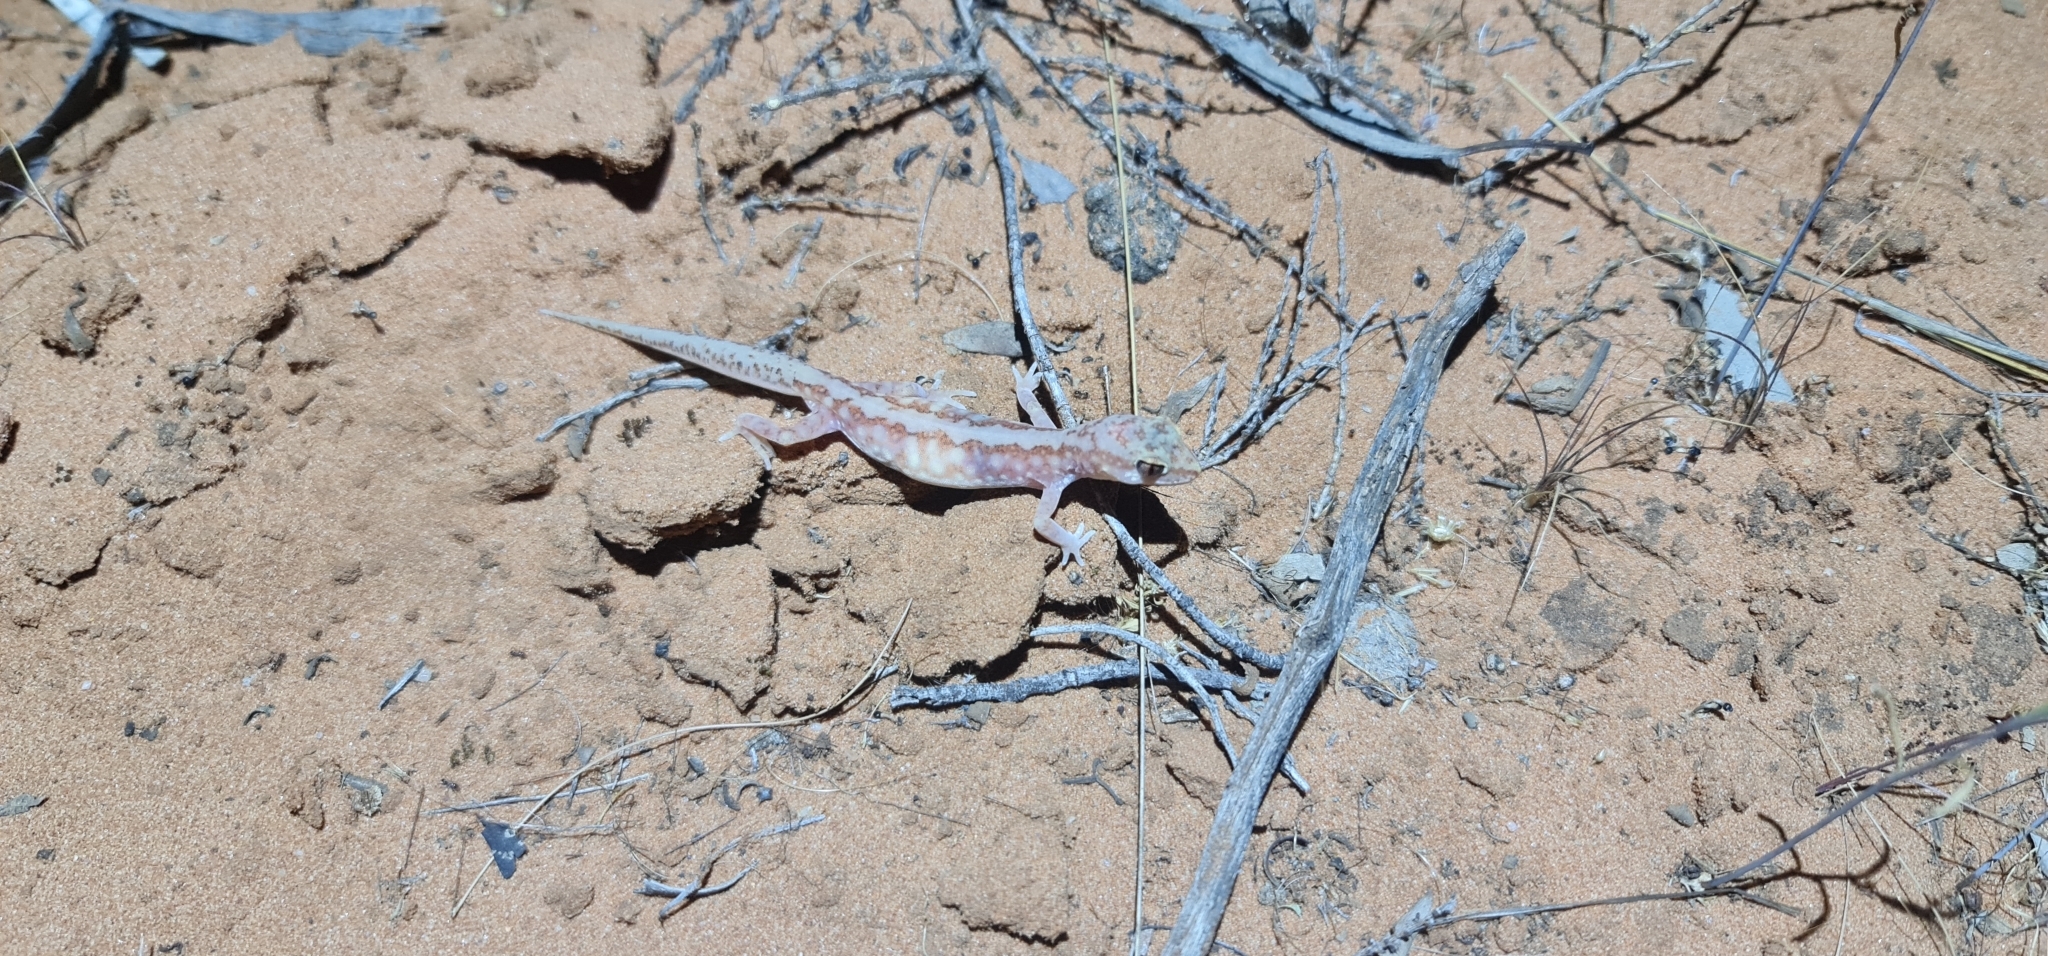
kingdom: Animalia
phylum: Chordata
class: Squamata
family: Diplodactylidae
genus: Lucasium
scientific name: Lucasium damaeum
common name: Beaded gecko
